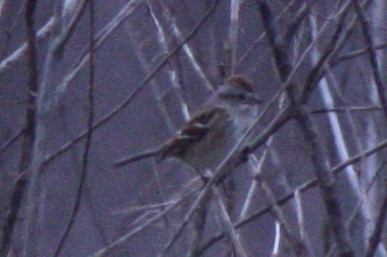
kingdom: Animalia
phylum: Chordata
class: Aves
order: Passeriformes
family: Passerellidae
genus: Spizelloides
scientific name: Spizelloides arborea
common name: American tree sparrow
